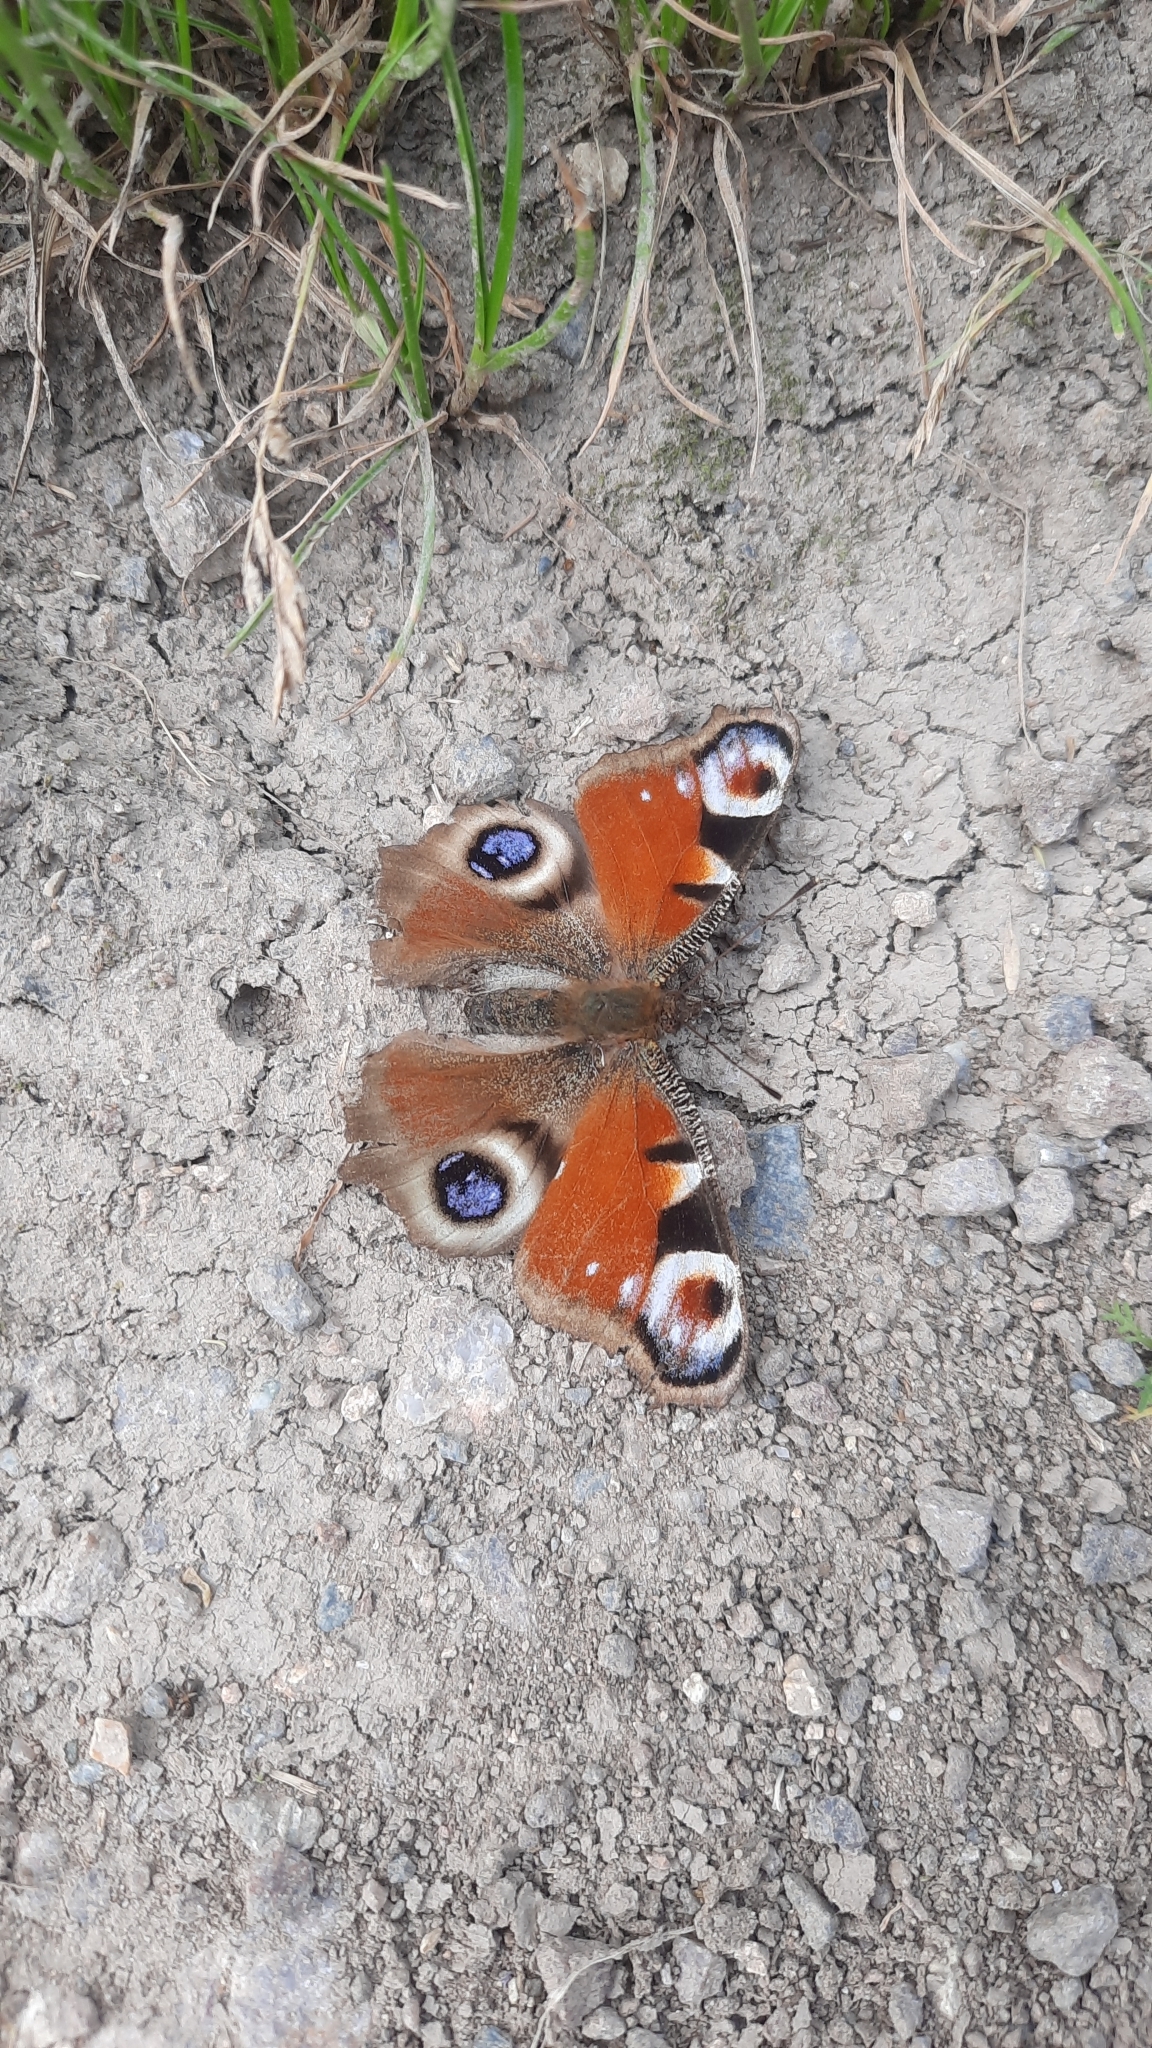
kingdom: Animalia
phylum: Arthropoda
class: Insecta
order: Lepidoptera
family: Nymphalidae
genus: Aglais
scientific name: Aglais io
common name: Peacock
